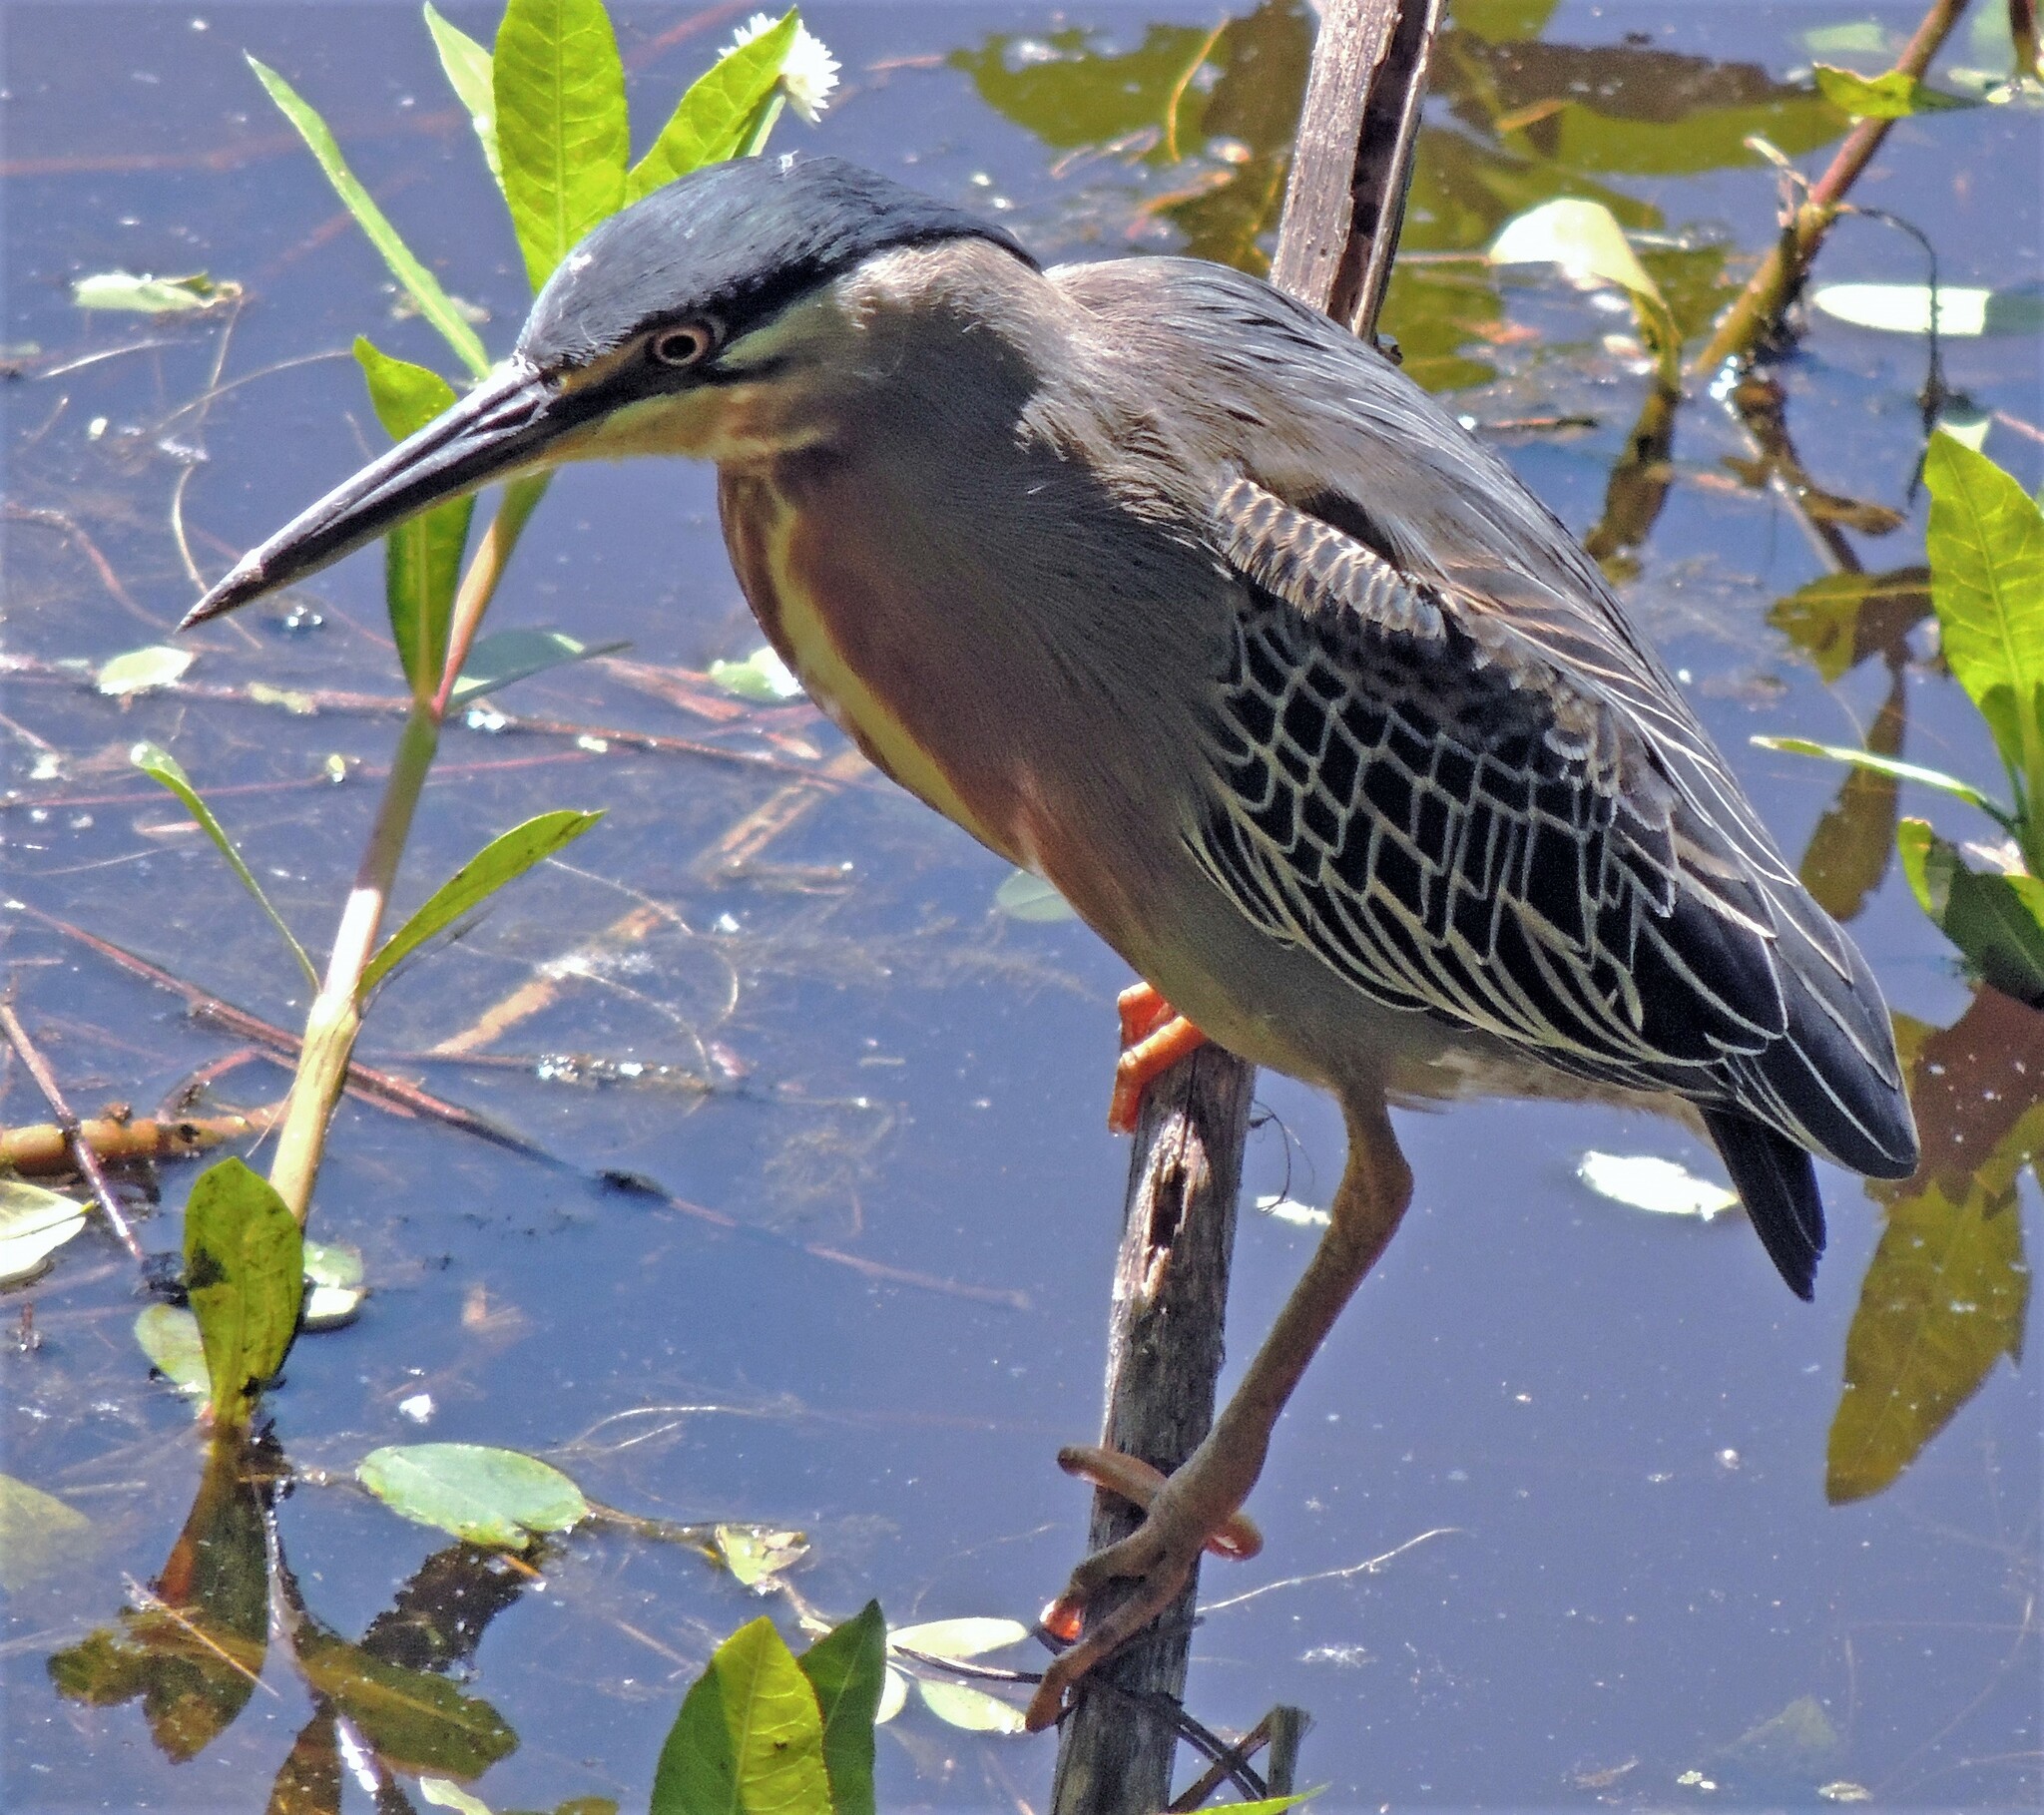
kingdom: Animalia
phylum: Chordata
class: Aves
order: Pelecaniformes
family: Ardeidae
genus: Butorides
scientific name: Butorides striata
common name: Striated heron
